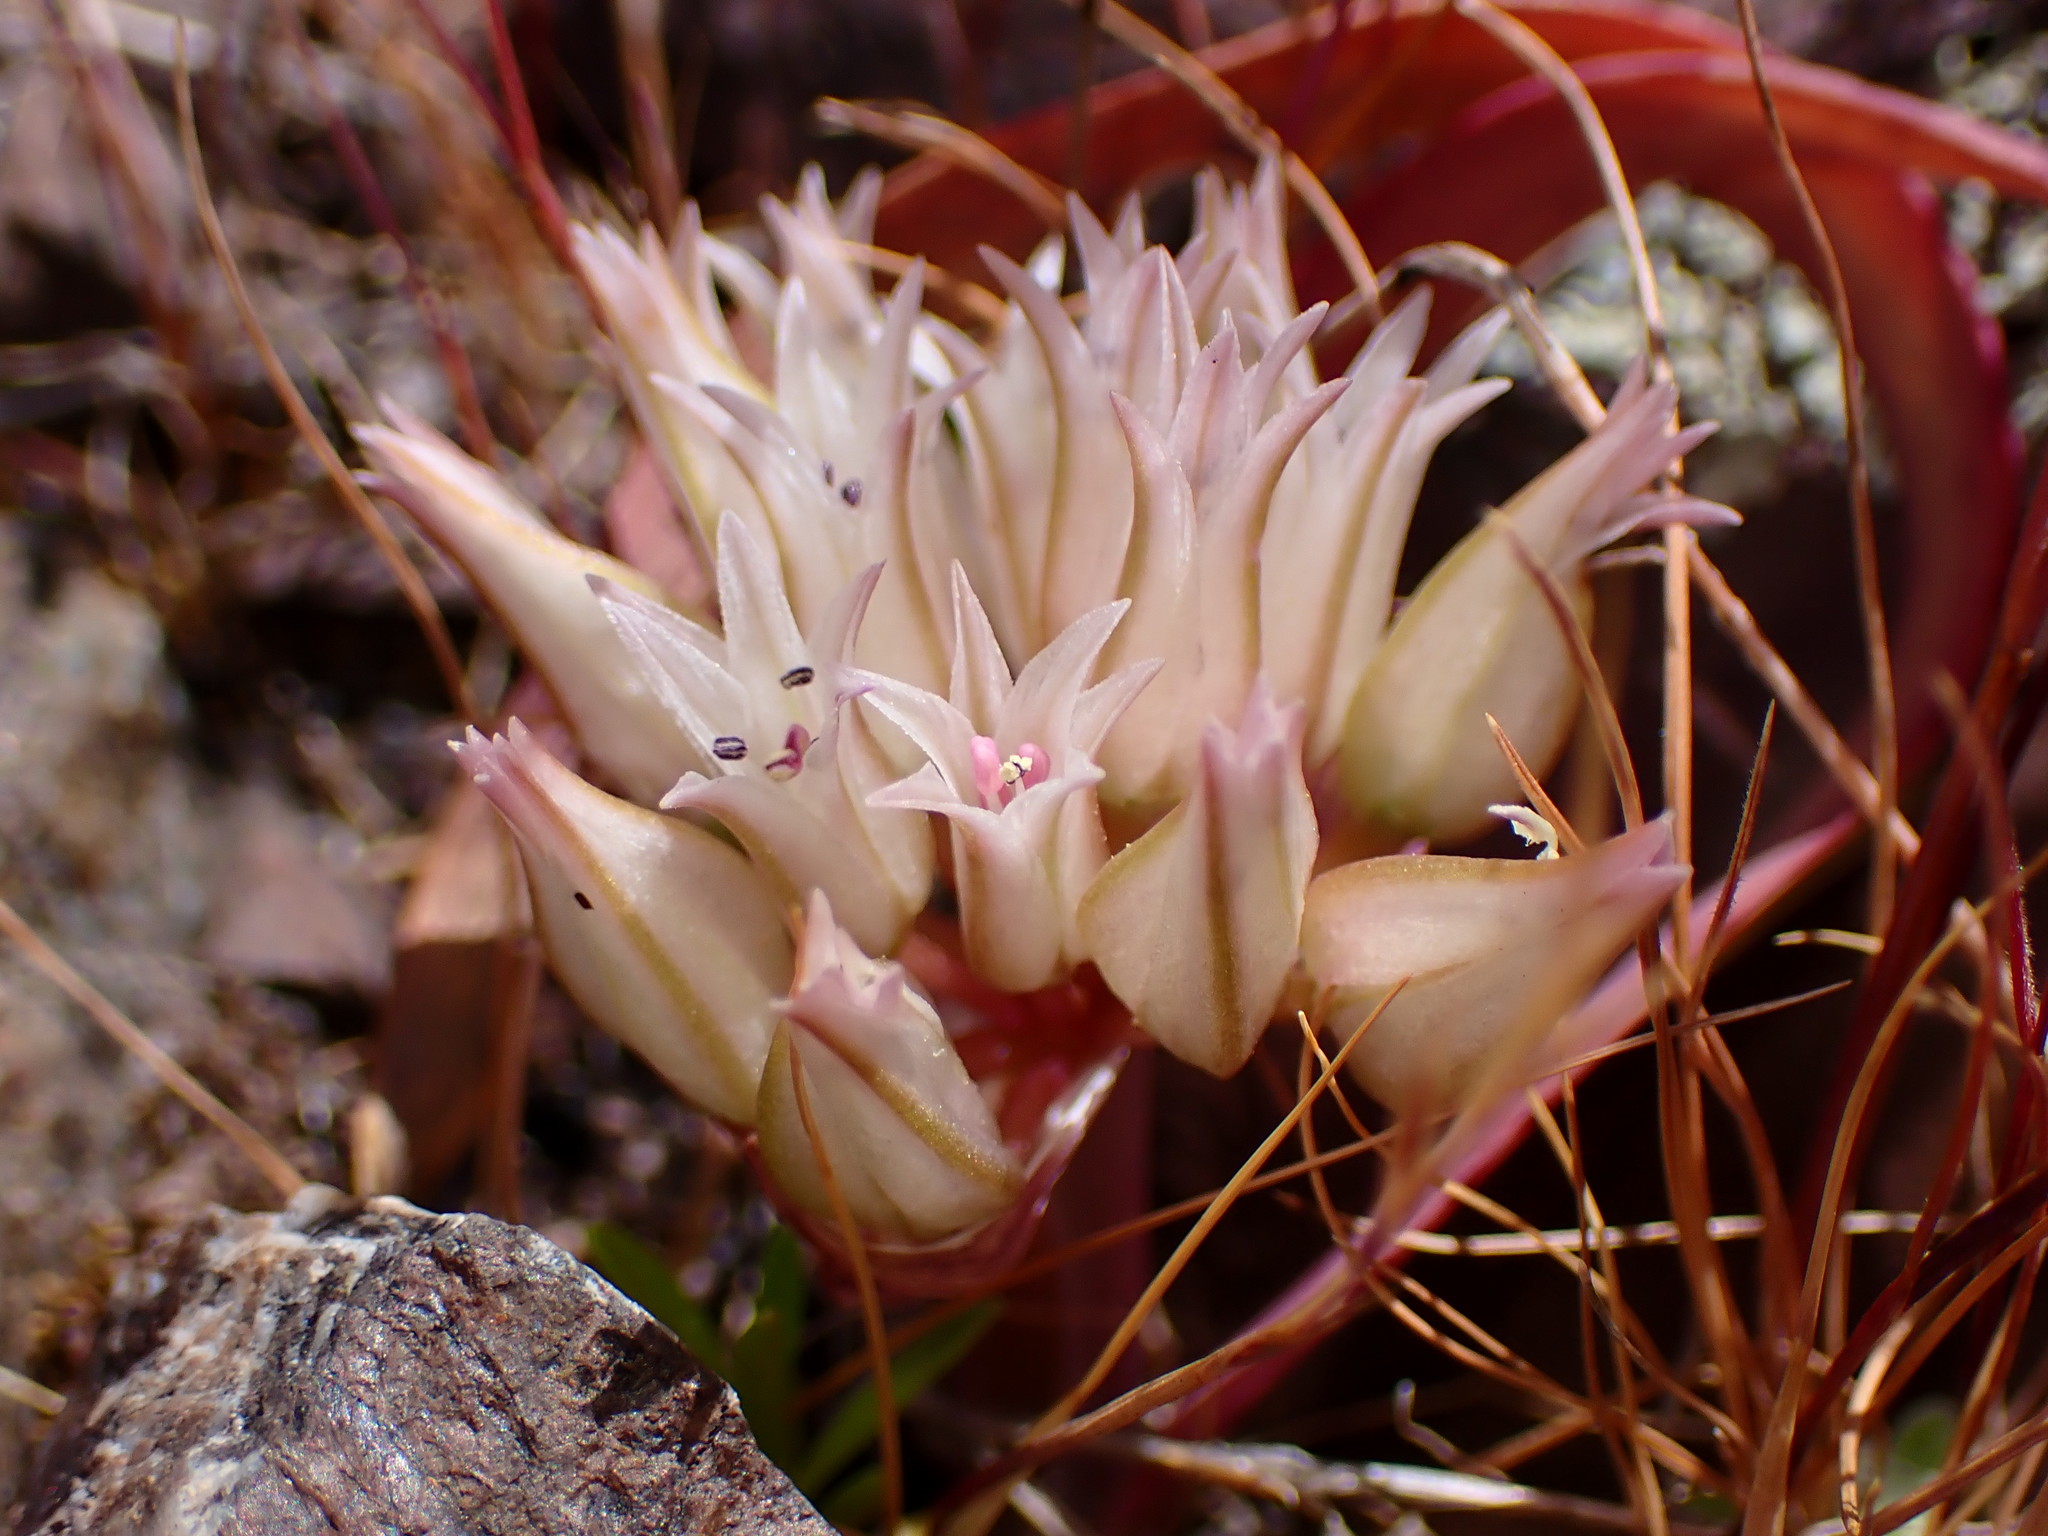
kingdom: Plantae
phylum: Tracheophyta
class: Liliopsida
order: Asparagales
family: Amaryllidaceae
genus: Allium
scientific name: Allium falcifolium
